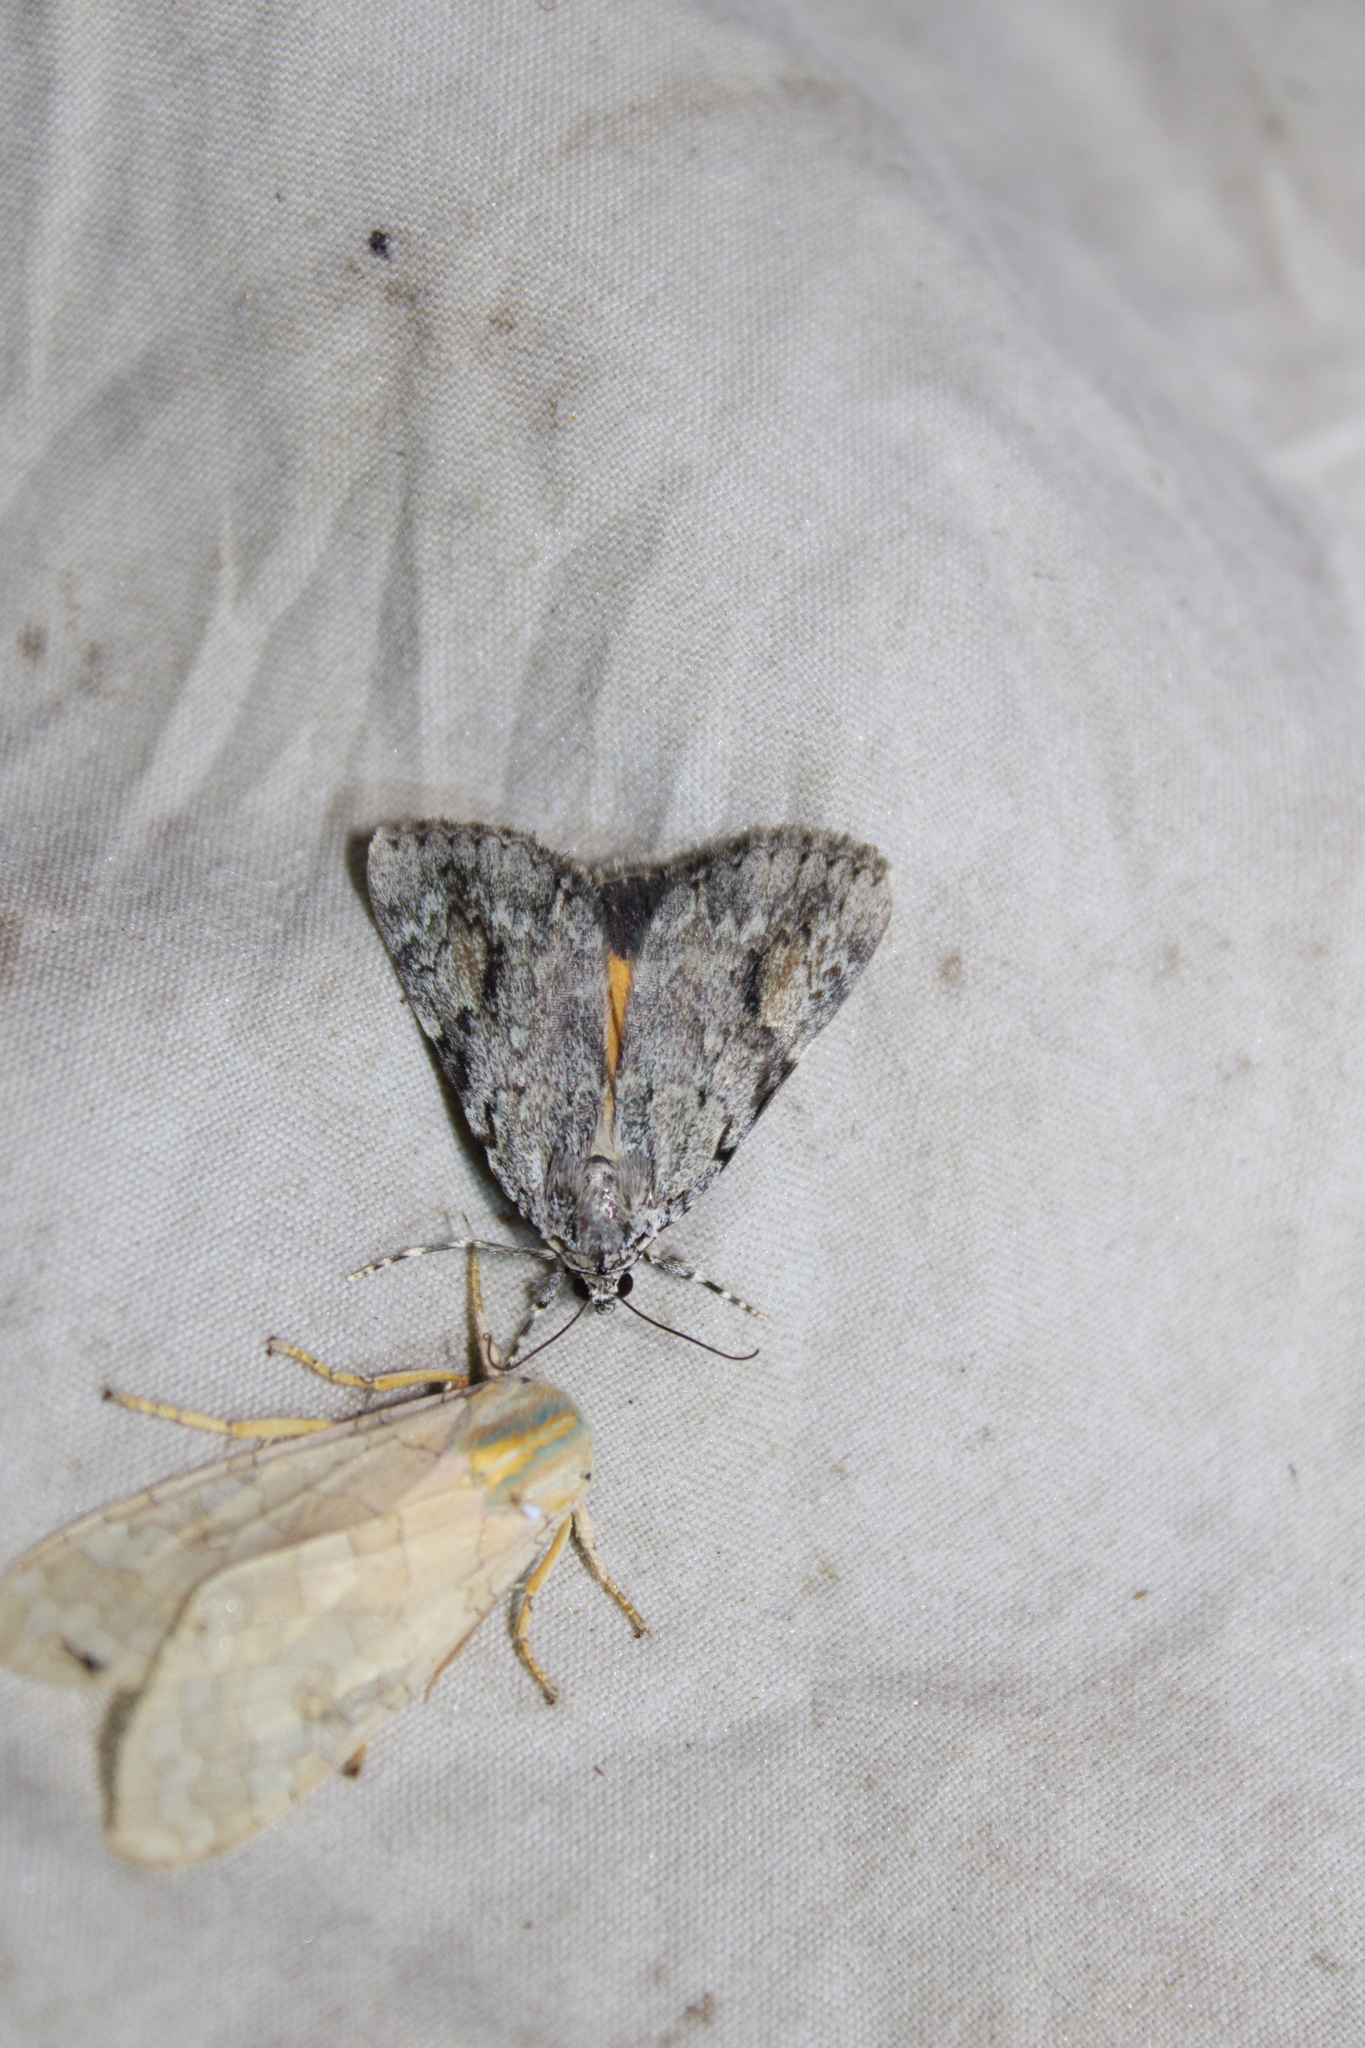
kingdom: Animalia
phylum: Arthropoda
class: Insecta
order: Lepidoptera
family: Erebidae
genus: Catocala
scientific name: Catocala amica
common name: Girlfriend underwing
